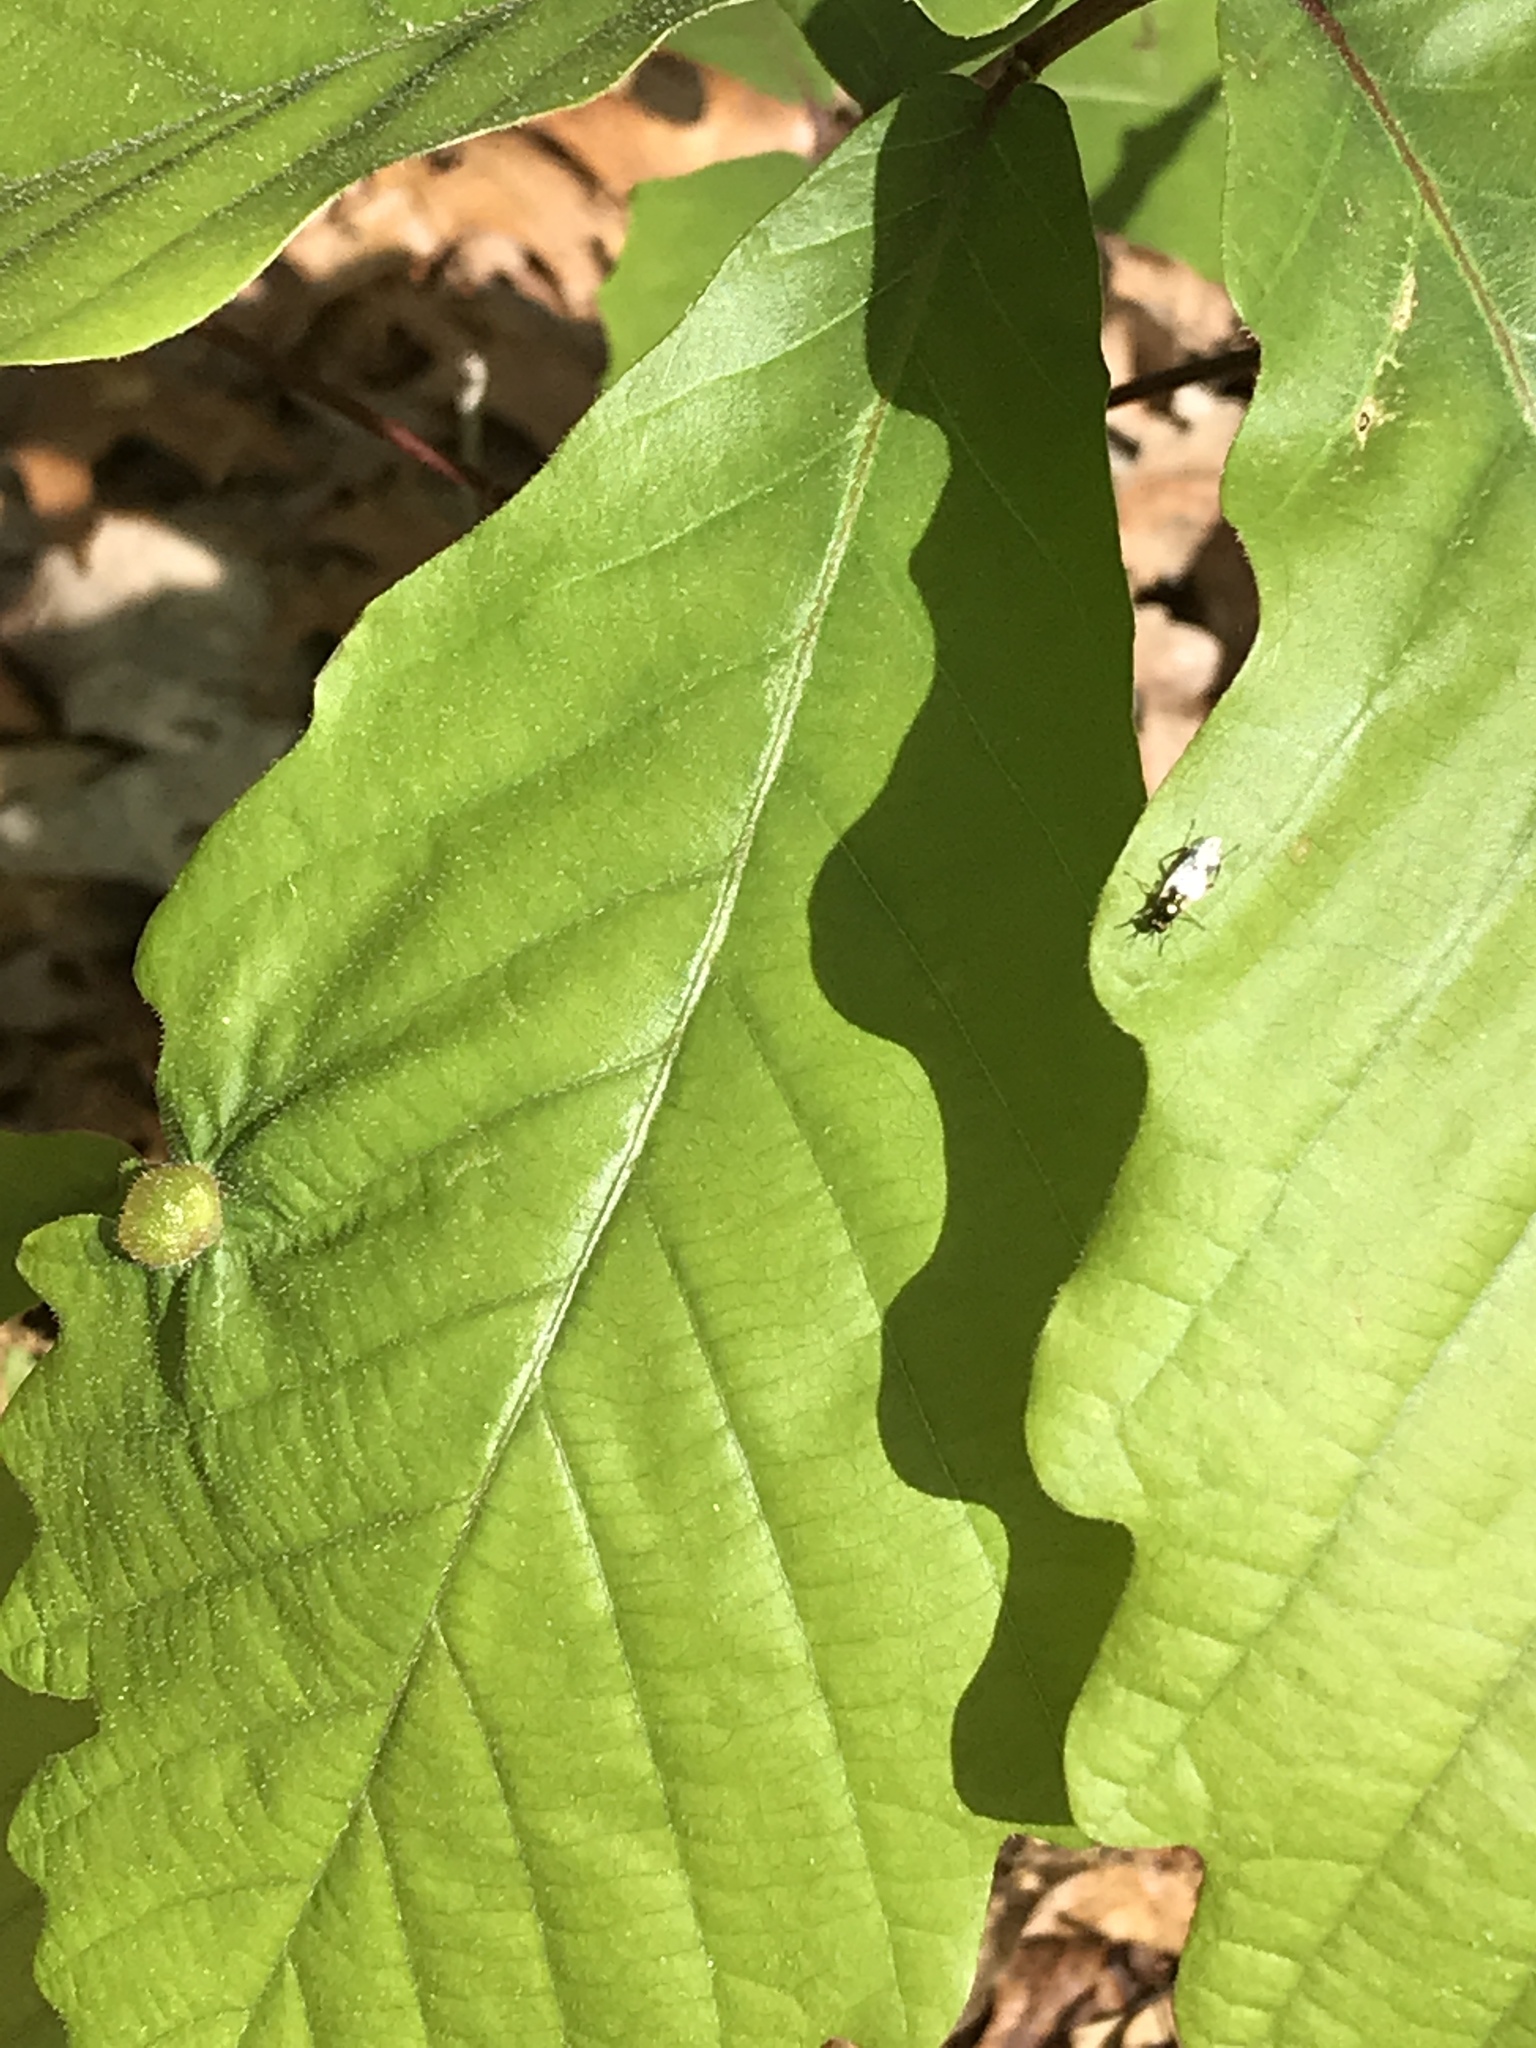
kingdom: Plantae
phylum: Tracheophyta
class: Magnoliopsida
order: Fagales
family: Fagaceae
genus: Quercus
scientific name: Quercus bicolor
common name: Swamp white oak
